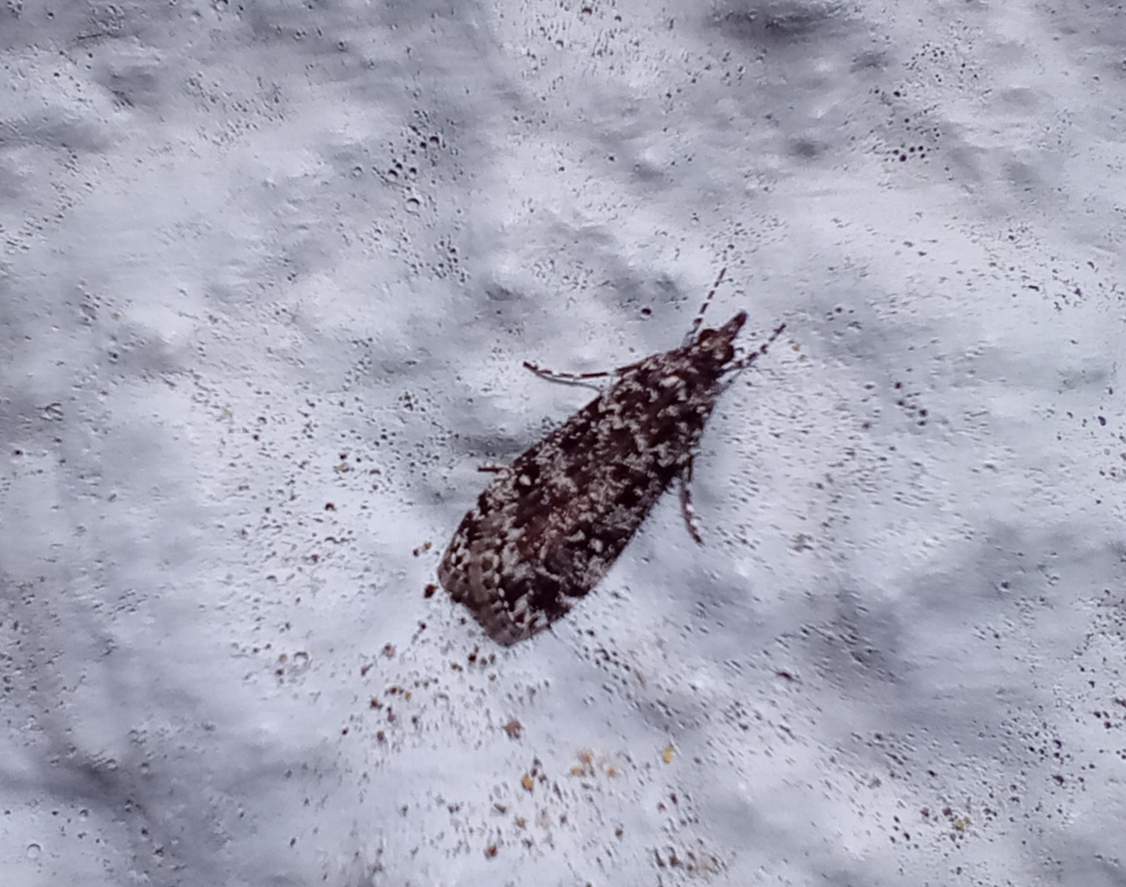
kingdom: Animalia
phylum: Arthropoda
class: Insecta
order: Lepidoptera
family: Crambidae
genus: Eudonia
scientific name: Eudonia philerga
